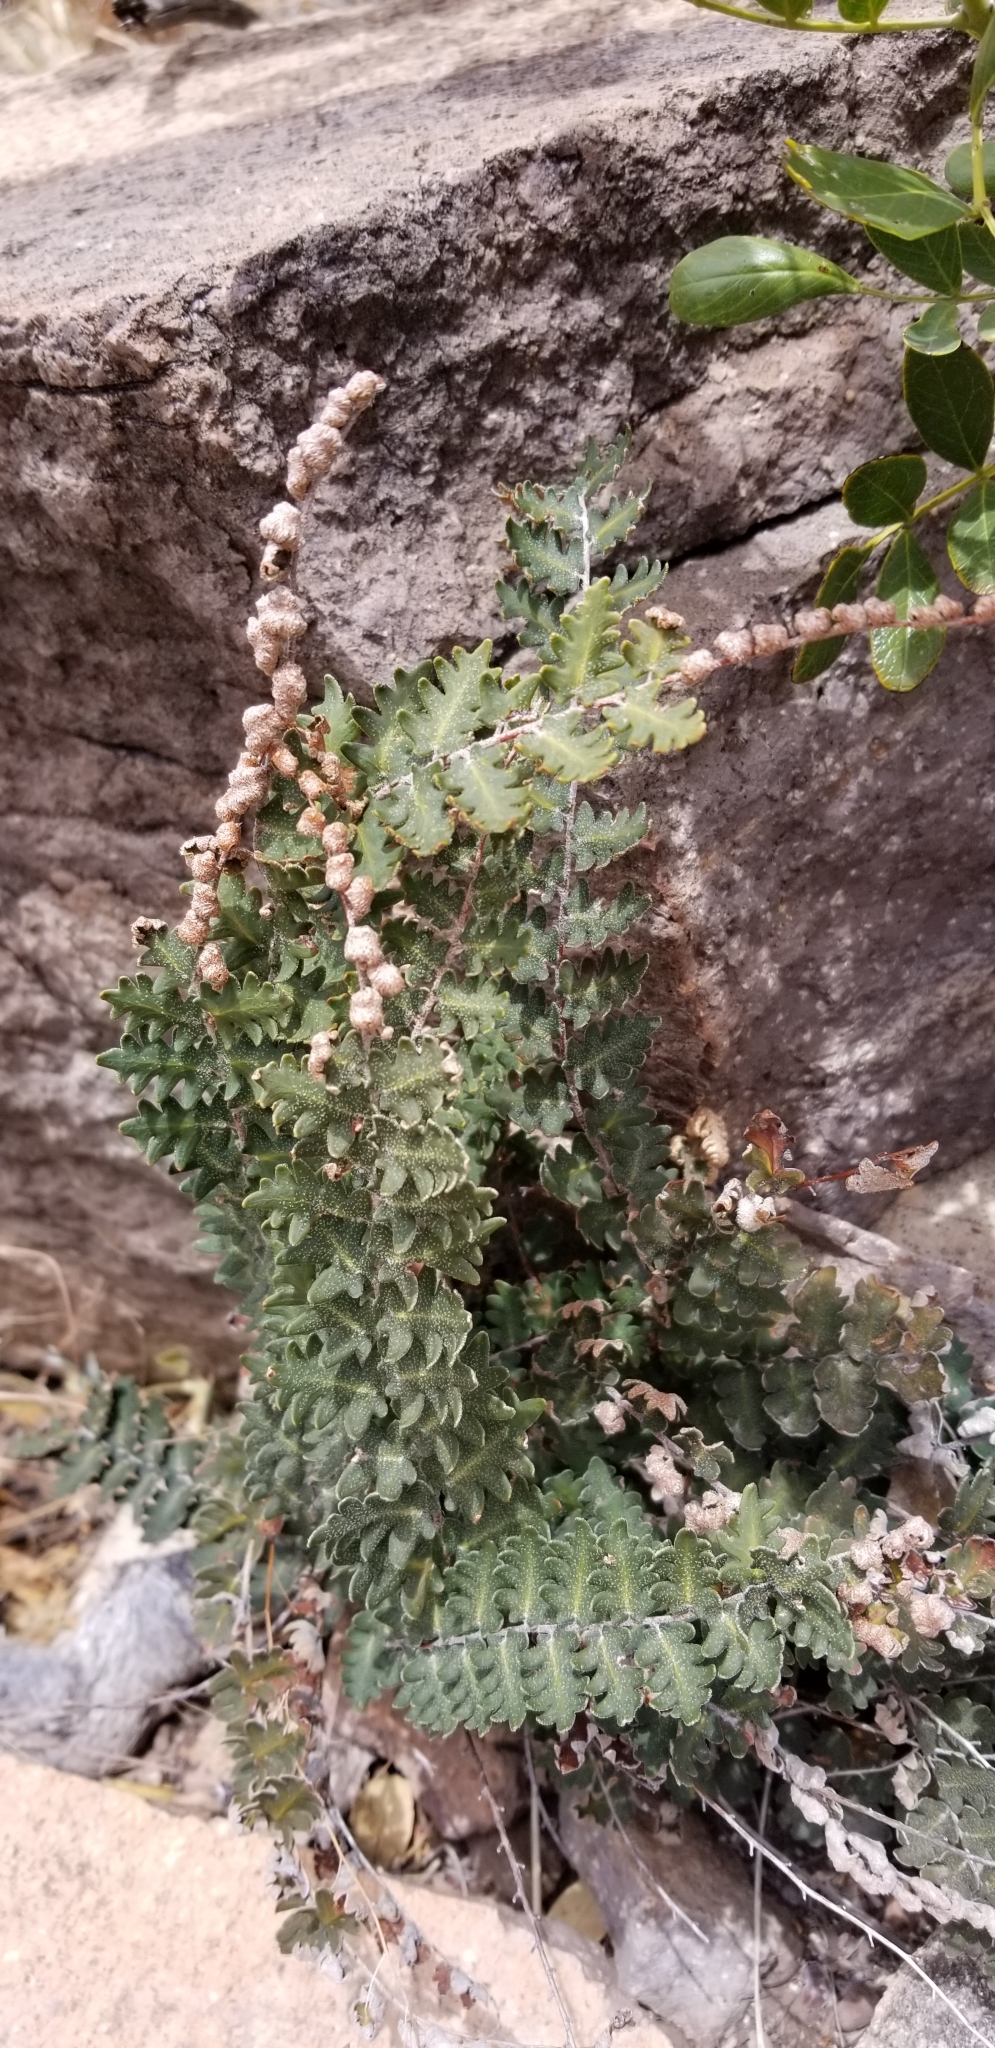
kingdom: Plantae
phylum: Tracheophyta
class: Polypodiopsida
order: Polypodiales
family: Pteridaceae
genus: Astrolepis
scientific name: Astrolepis sinuata
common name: Wavy scaly cloakfern
